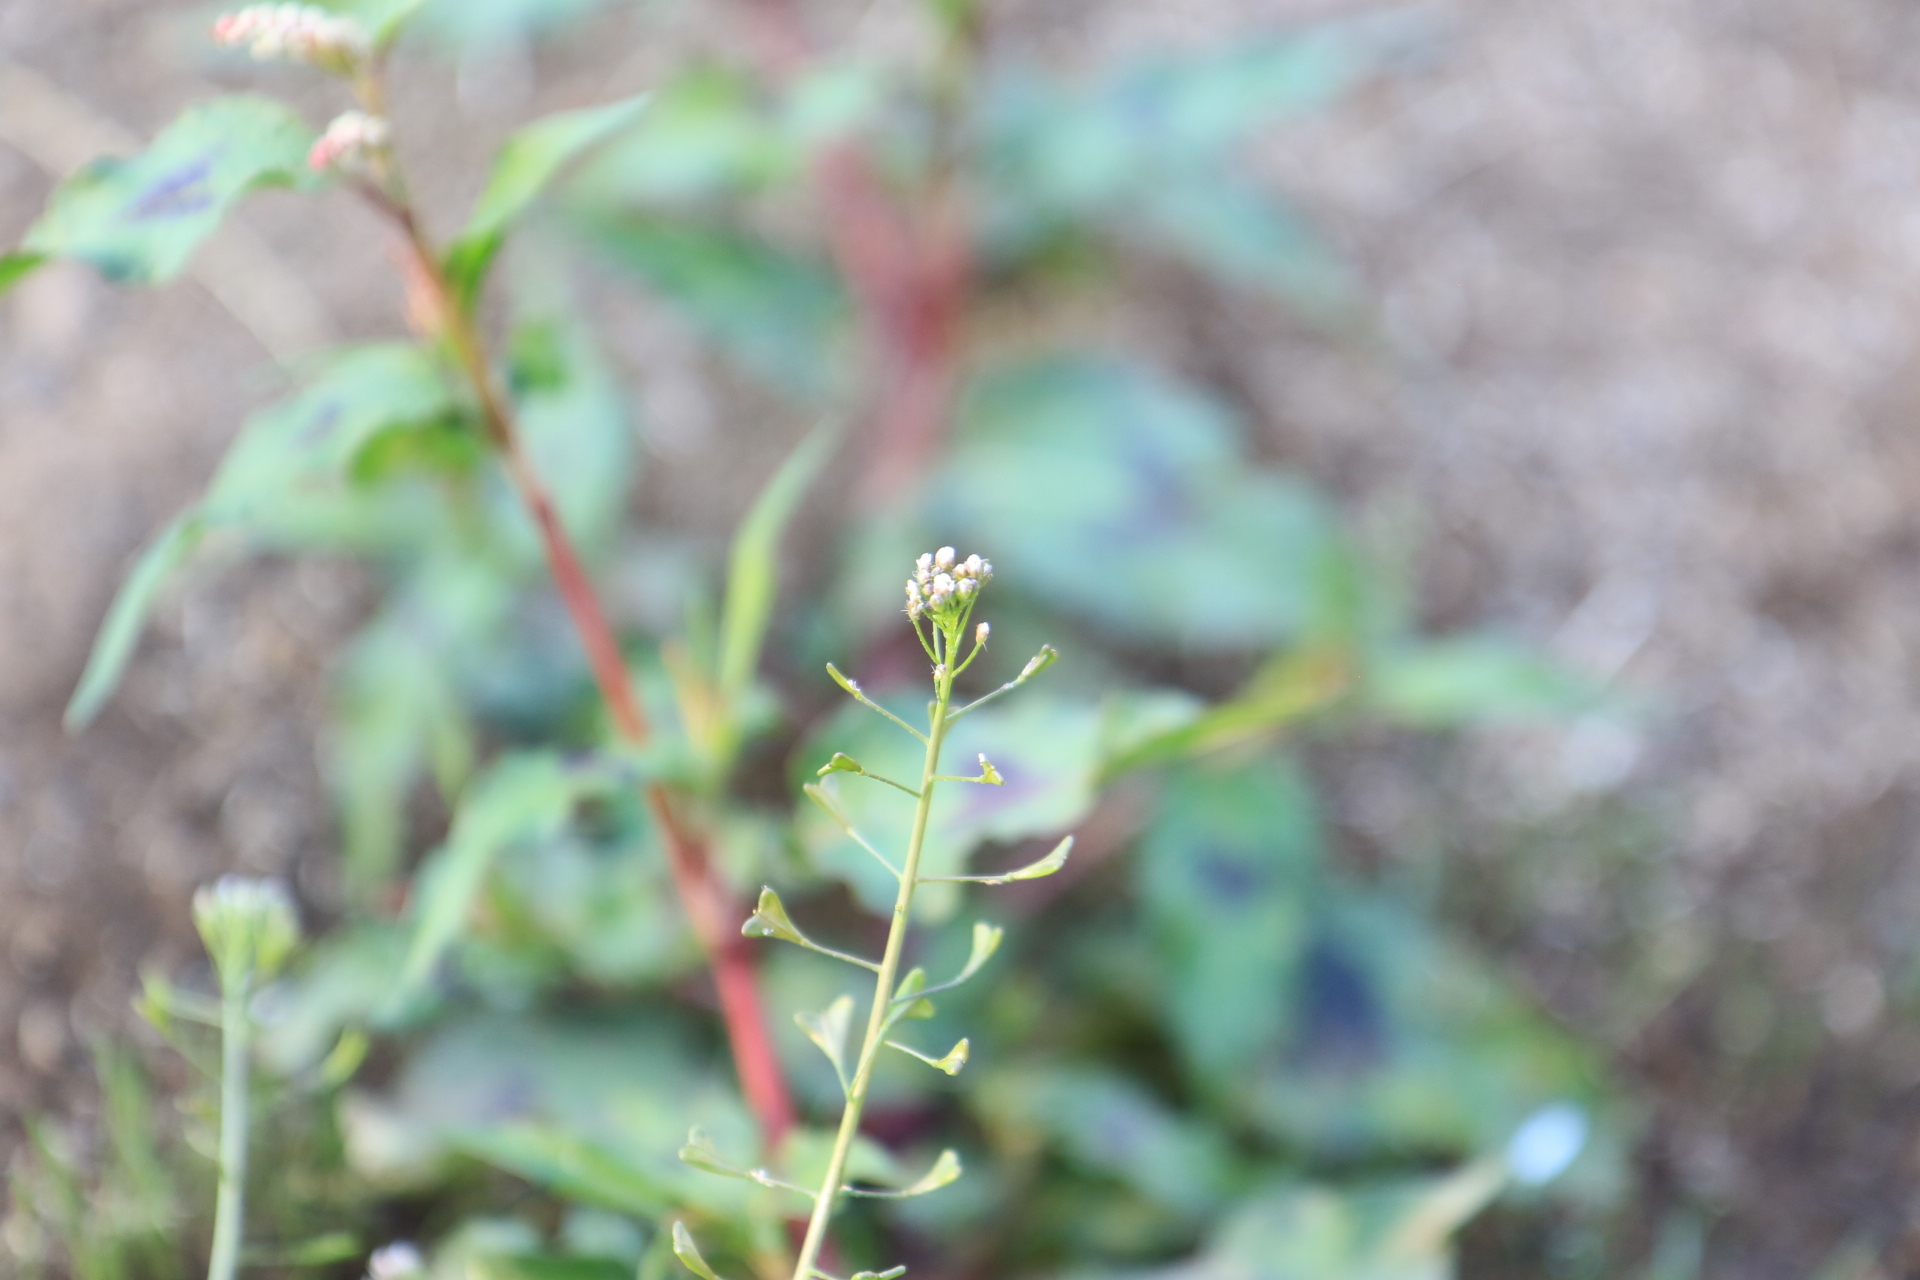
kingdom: Plantae
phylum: Tracheophyta
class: Magnoliopsida
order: Brassicales
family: Brassicaceae
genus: Capsella
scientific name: Capsella bursa-pastoris
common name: Shepherd's purse
